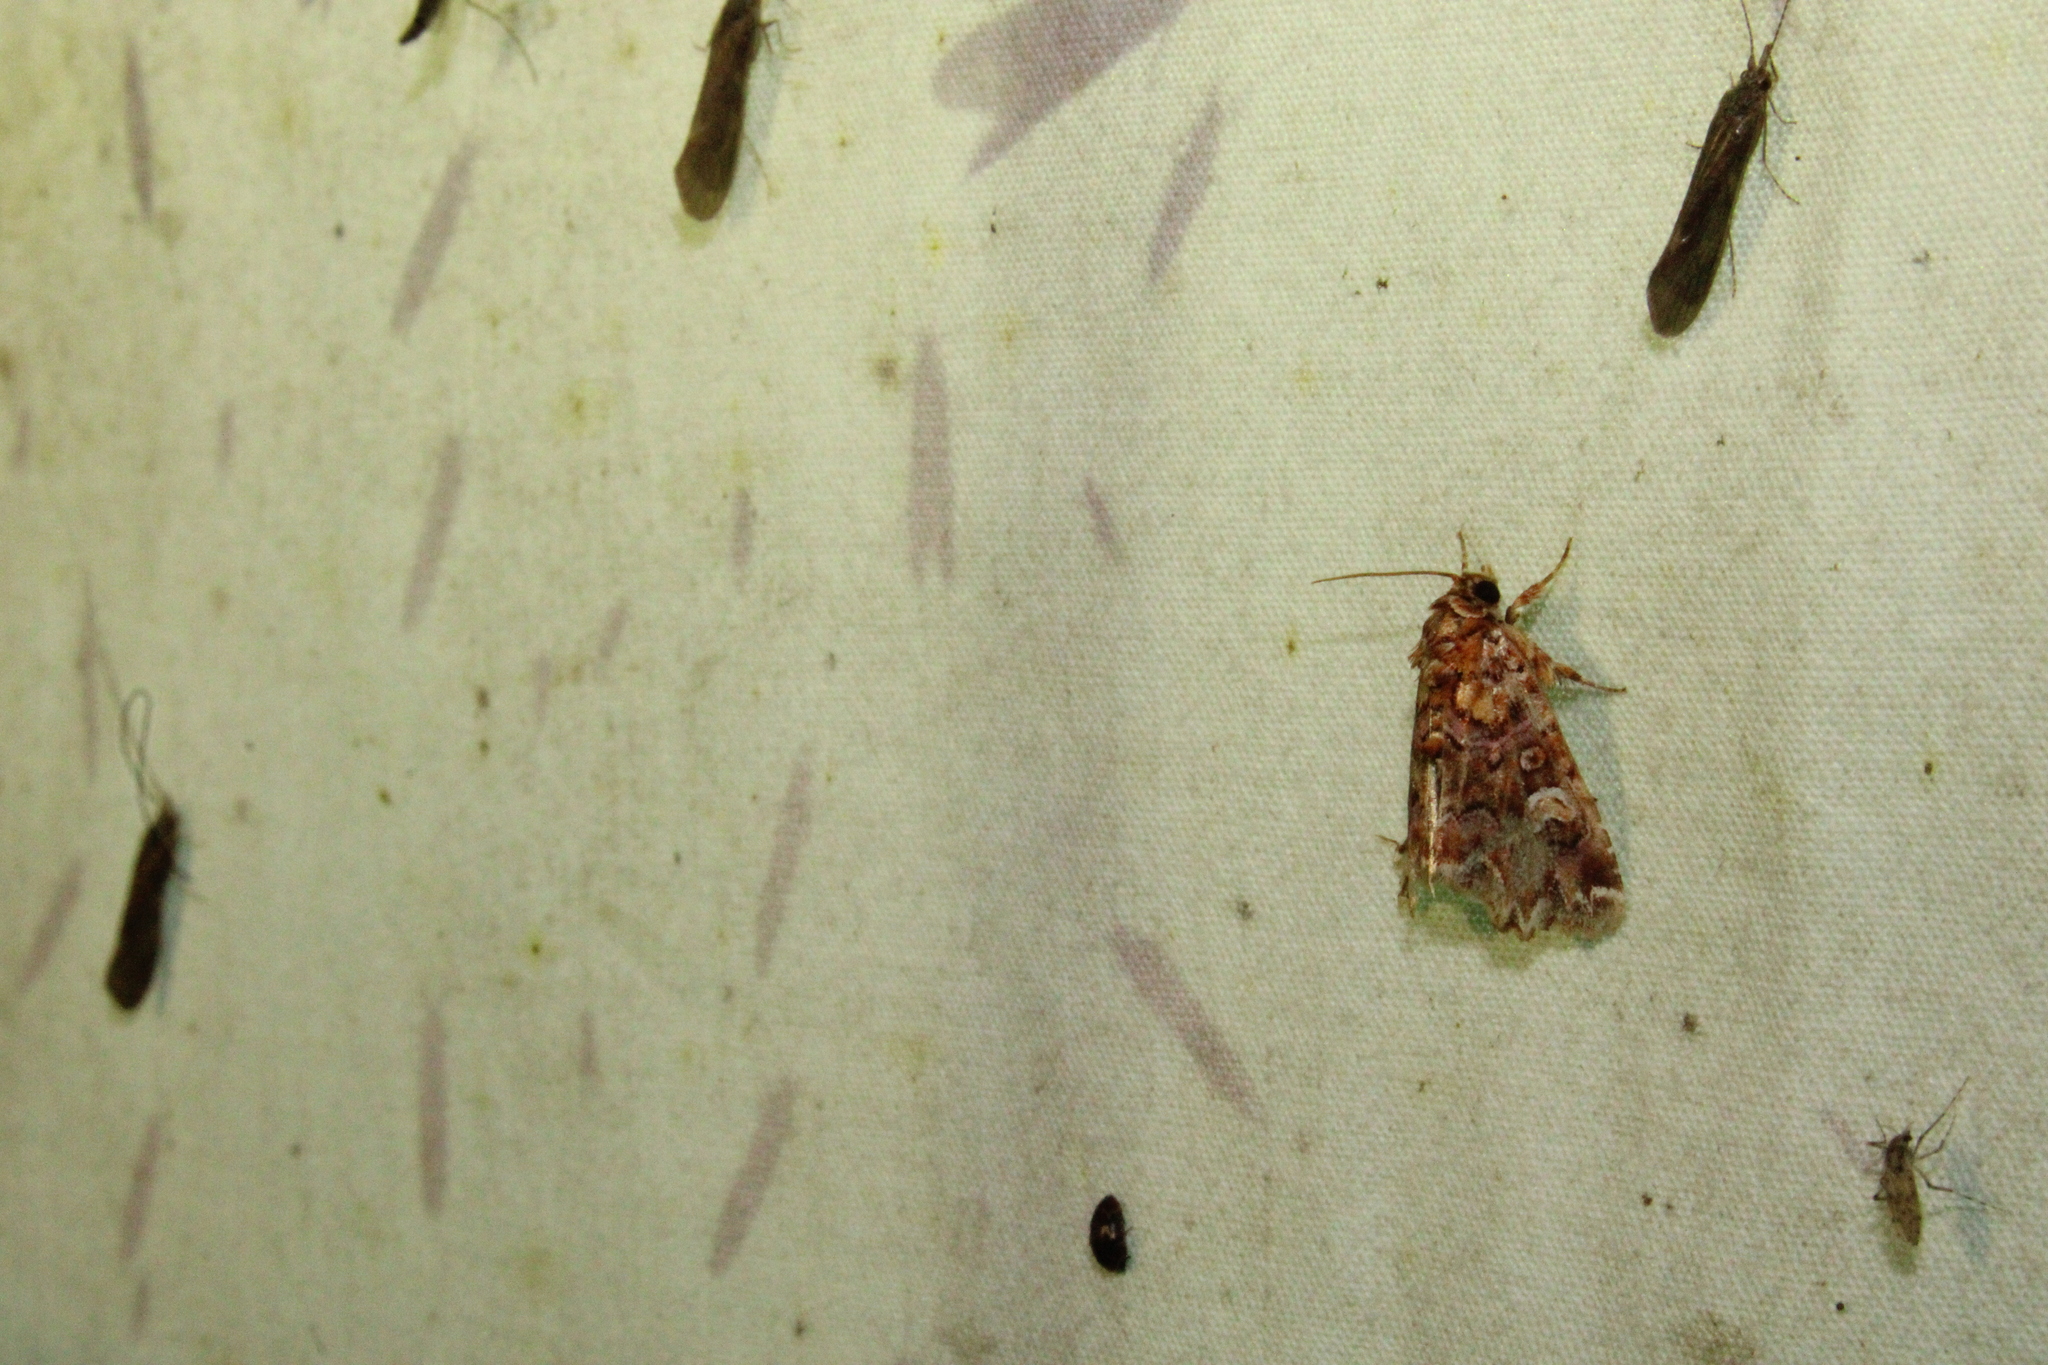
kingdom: Animalia
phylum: Arthropoda
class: Insecta
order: Lepidoptera
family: Noctuidae
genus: Callopistria
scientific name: Callopistria mollissima
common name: Pink-shaded fern moth
